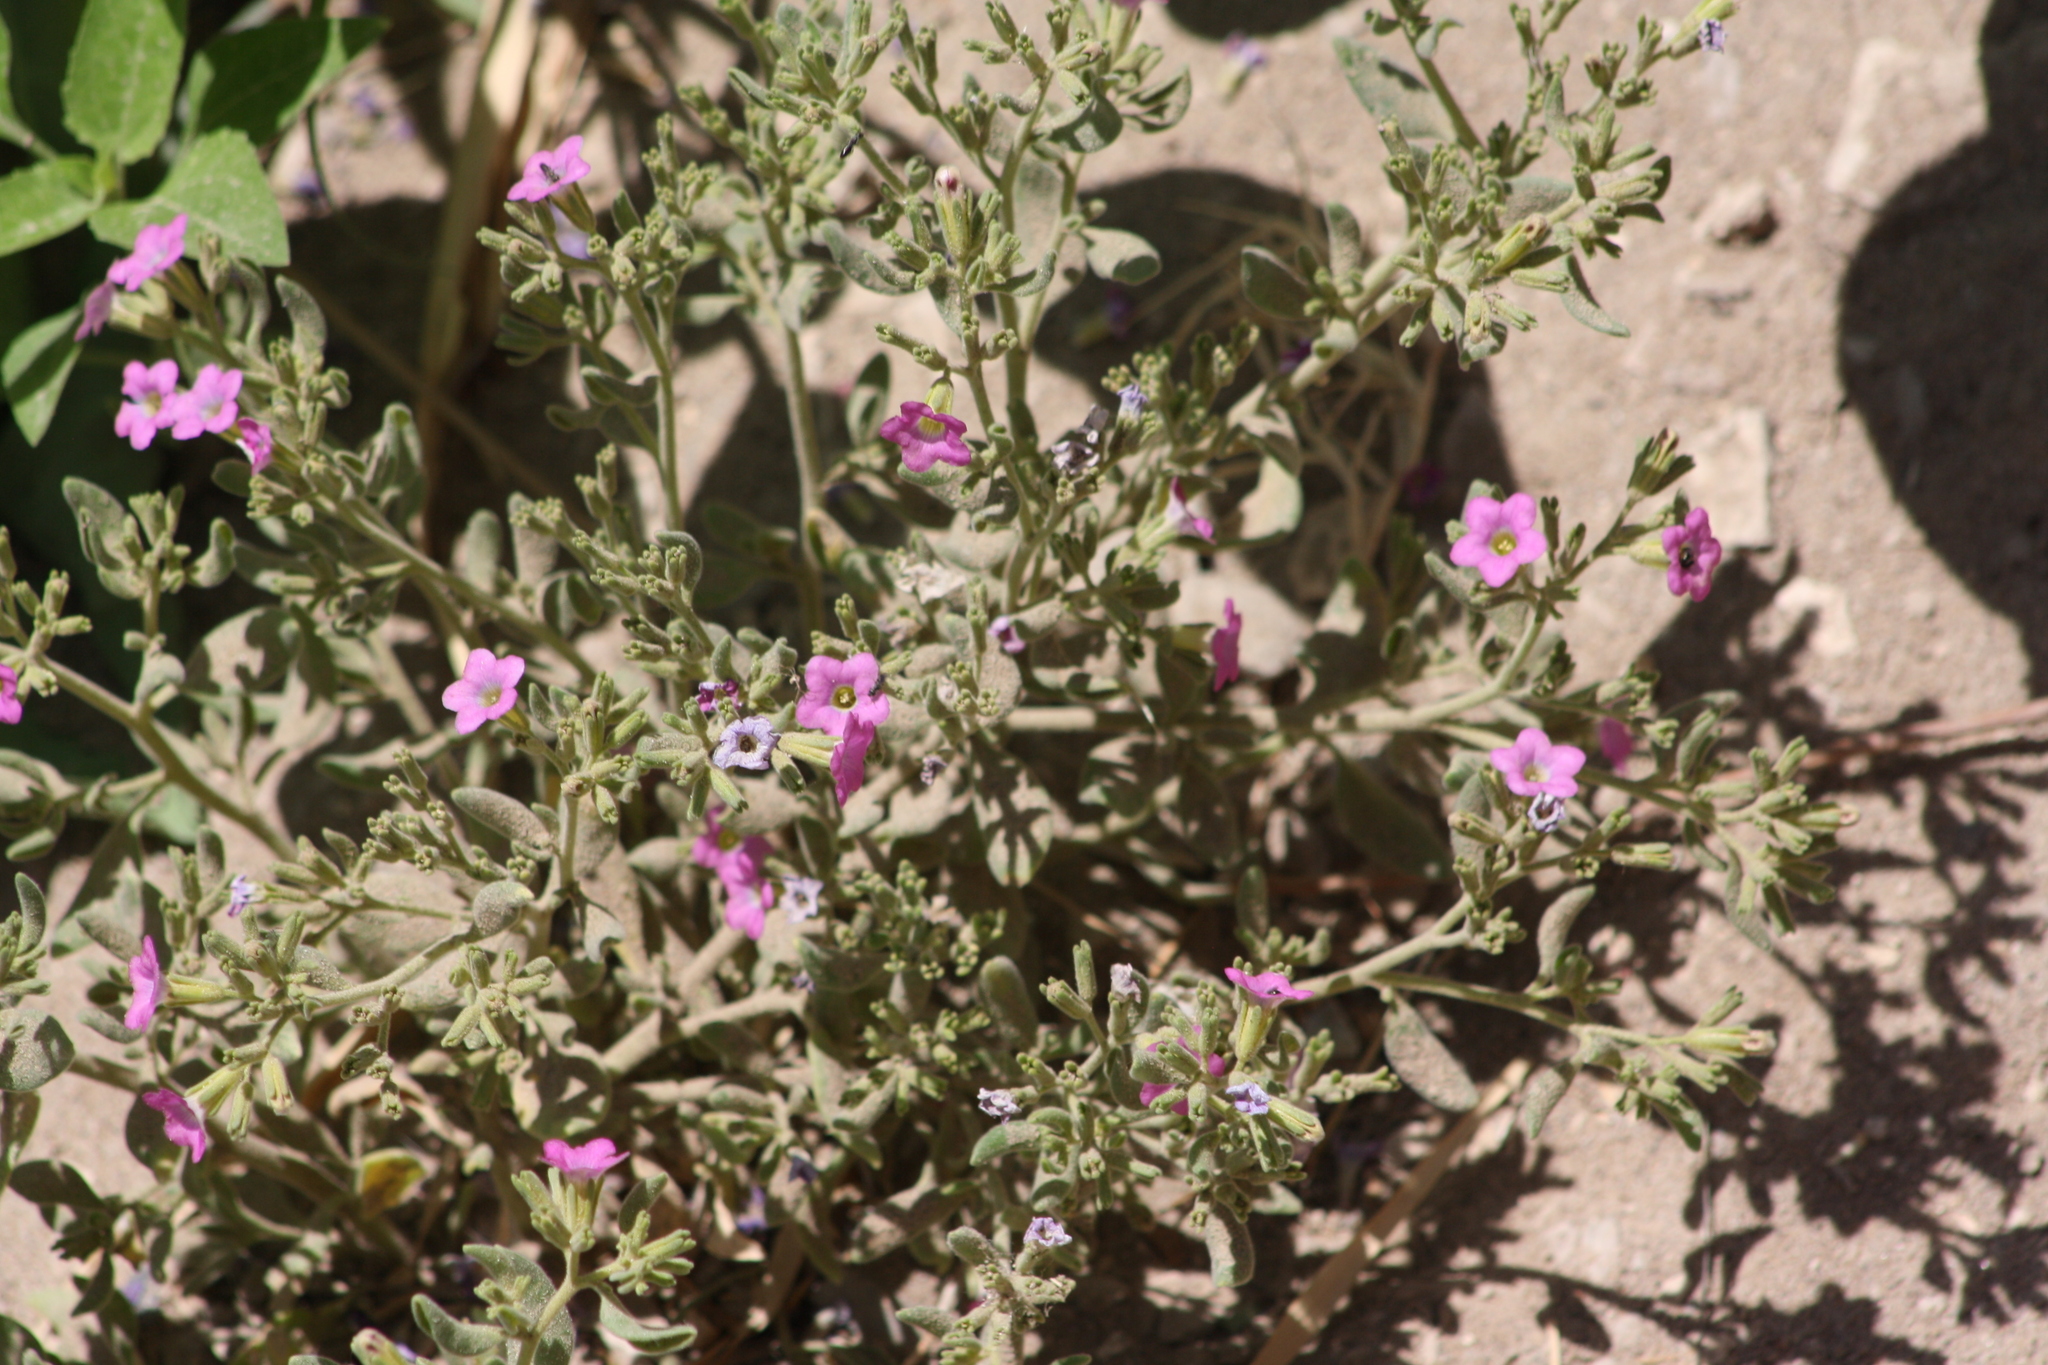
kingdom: Plantae
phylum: Tracheophyta
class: Magnoliopsida
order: Boraginales
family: Namaceae
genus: Nama
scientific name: Nama hispida
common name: Bristly nama
